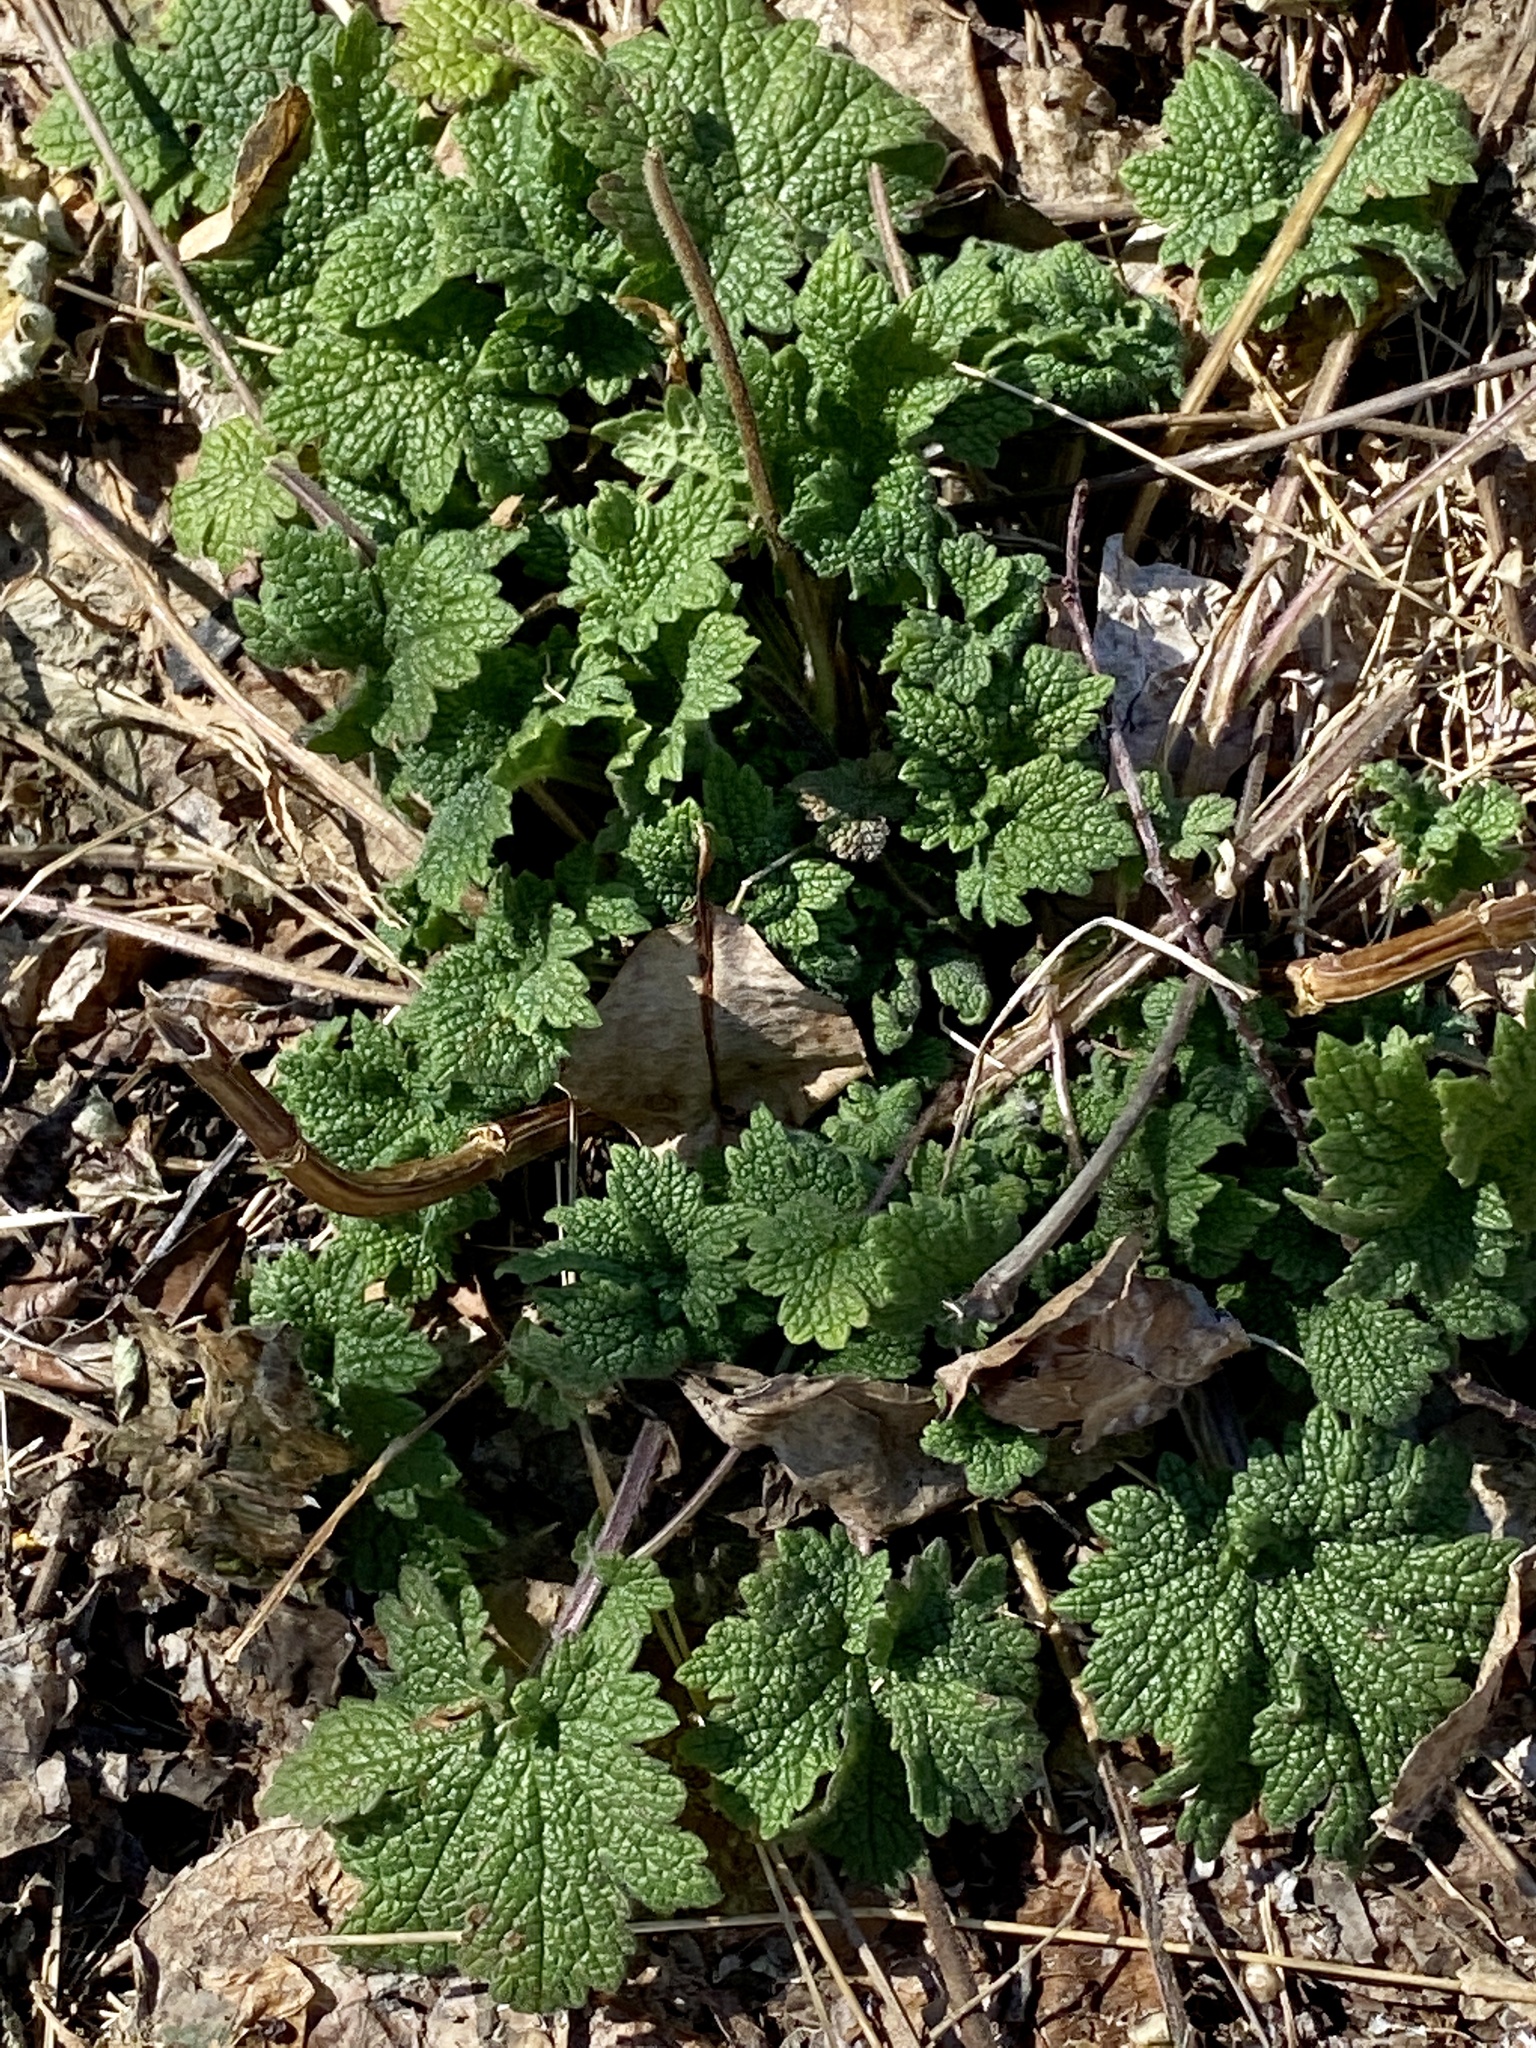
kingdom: Plantae
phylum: Tracheophyta
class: Magnoliopsida
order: Lamiales
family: Lamiaceae
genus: Leonurus
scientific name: Leonurus cardiaca
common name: Motherwort
